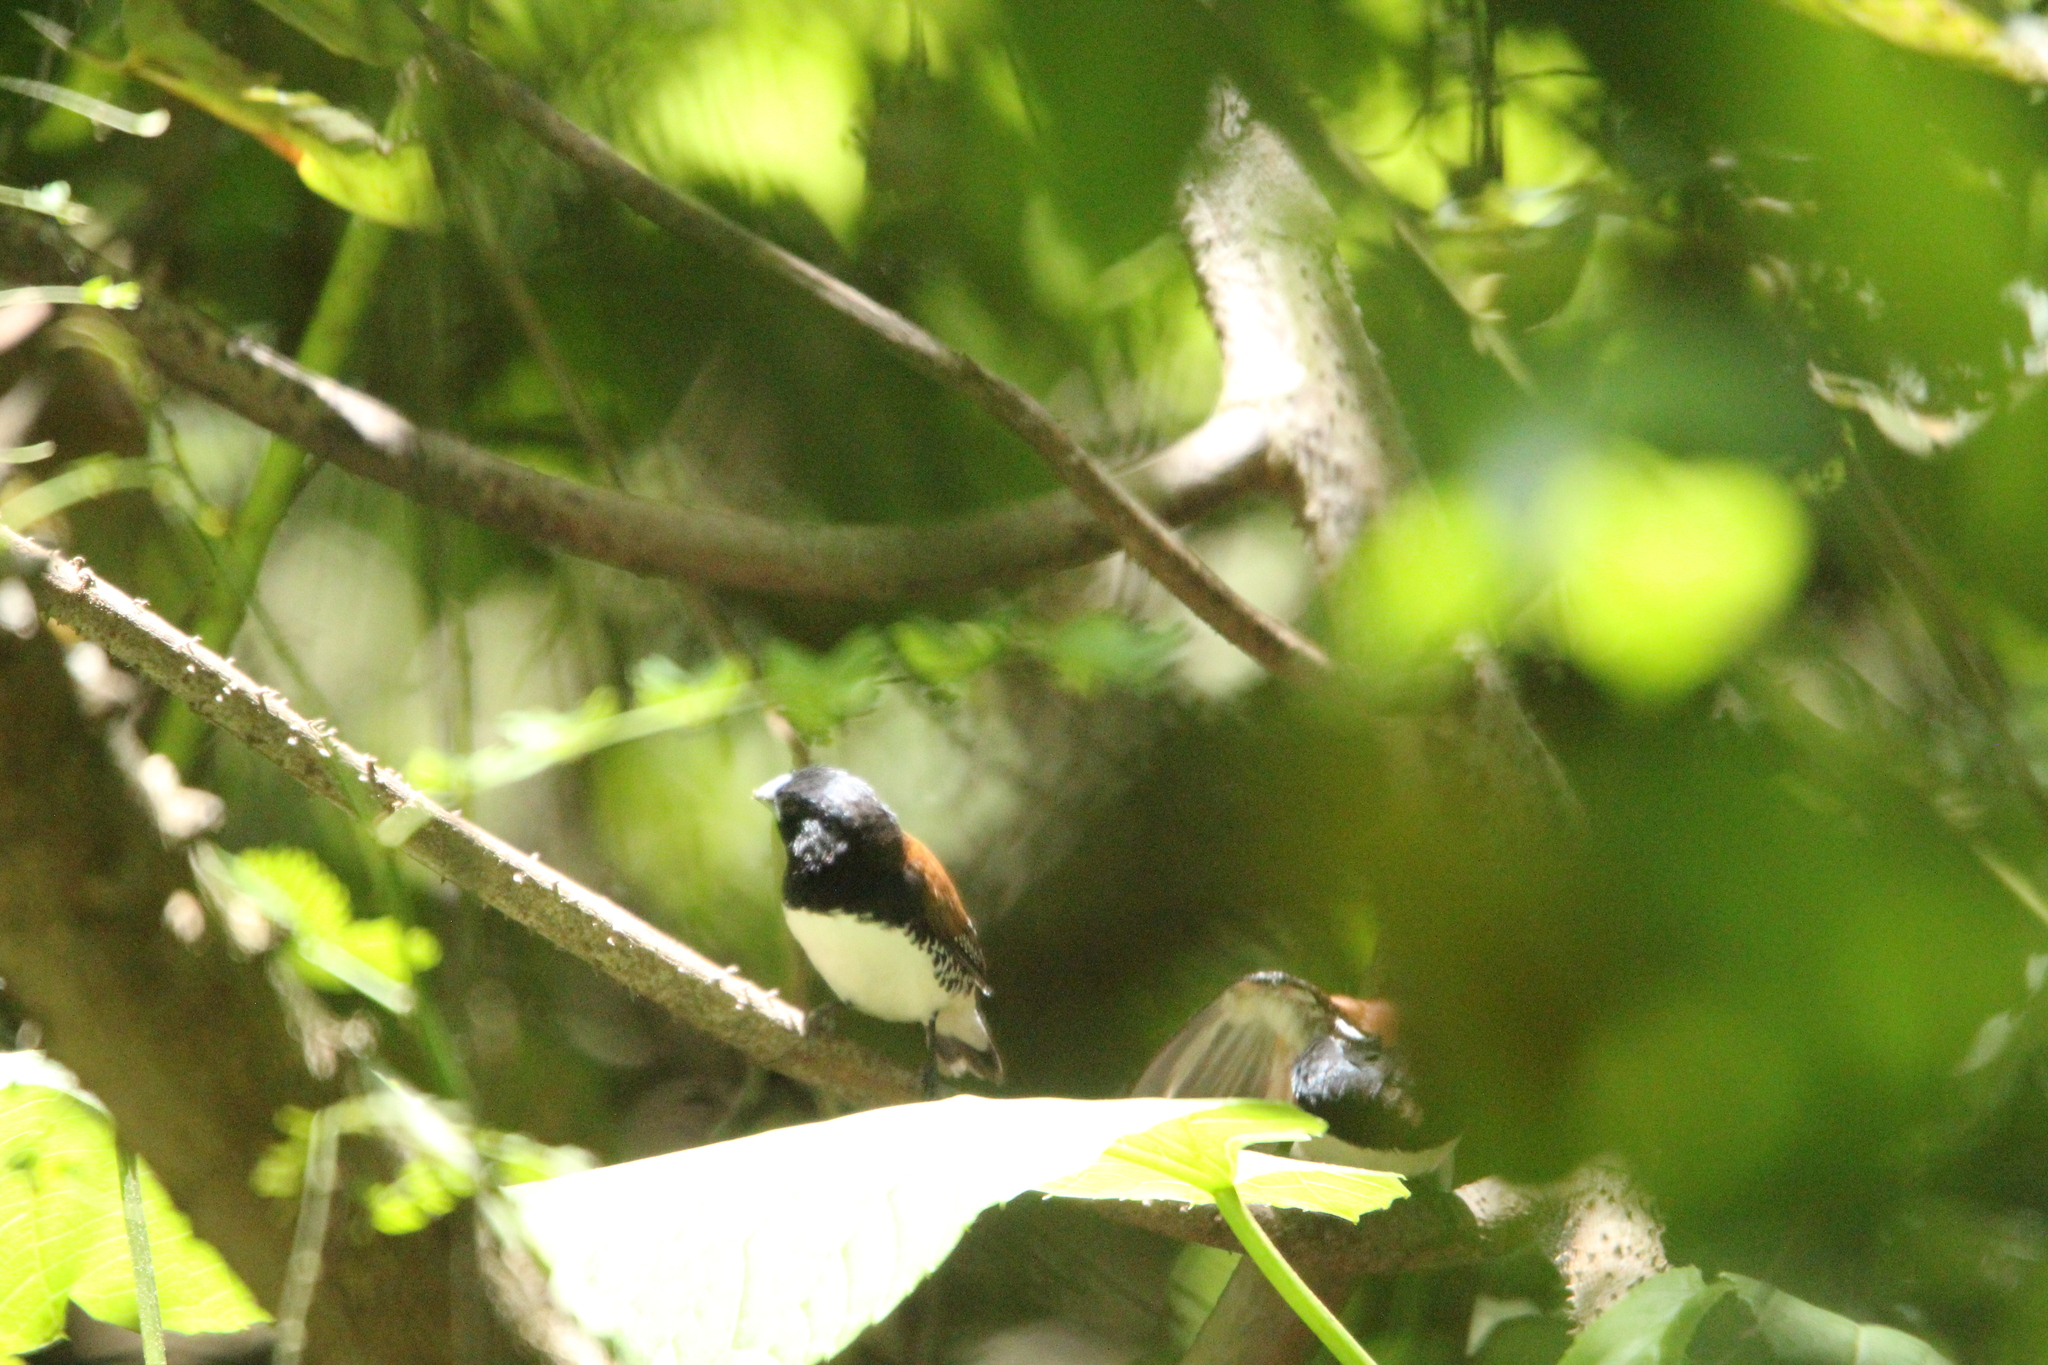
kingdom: Animalia
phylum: Chordata
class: Aves
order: Passeriformes
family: Estrildidae
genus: Lonchura
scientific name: Lonchura bicolor
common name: Black-and-white mannikin
